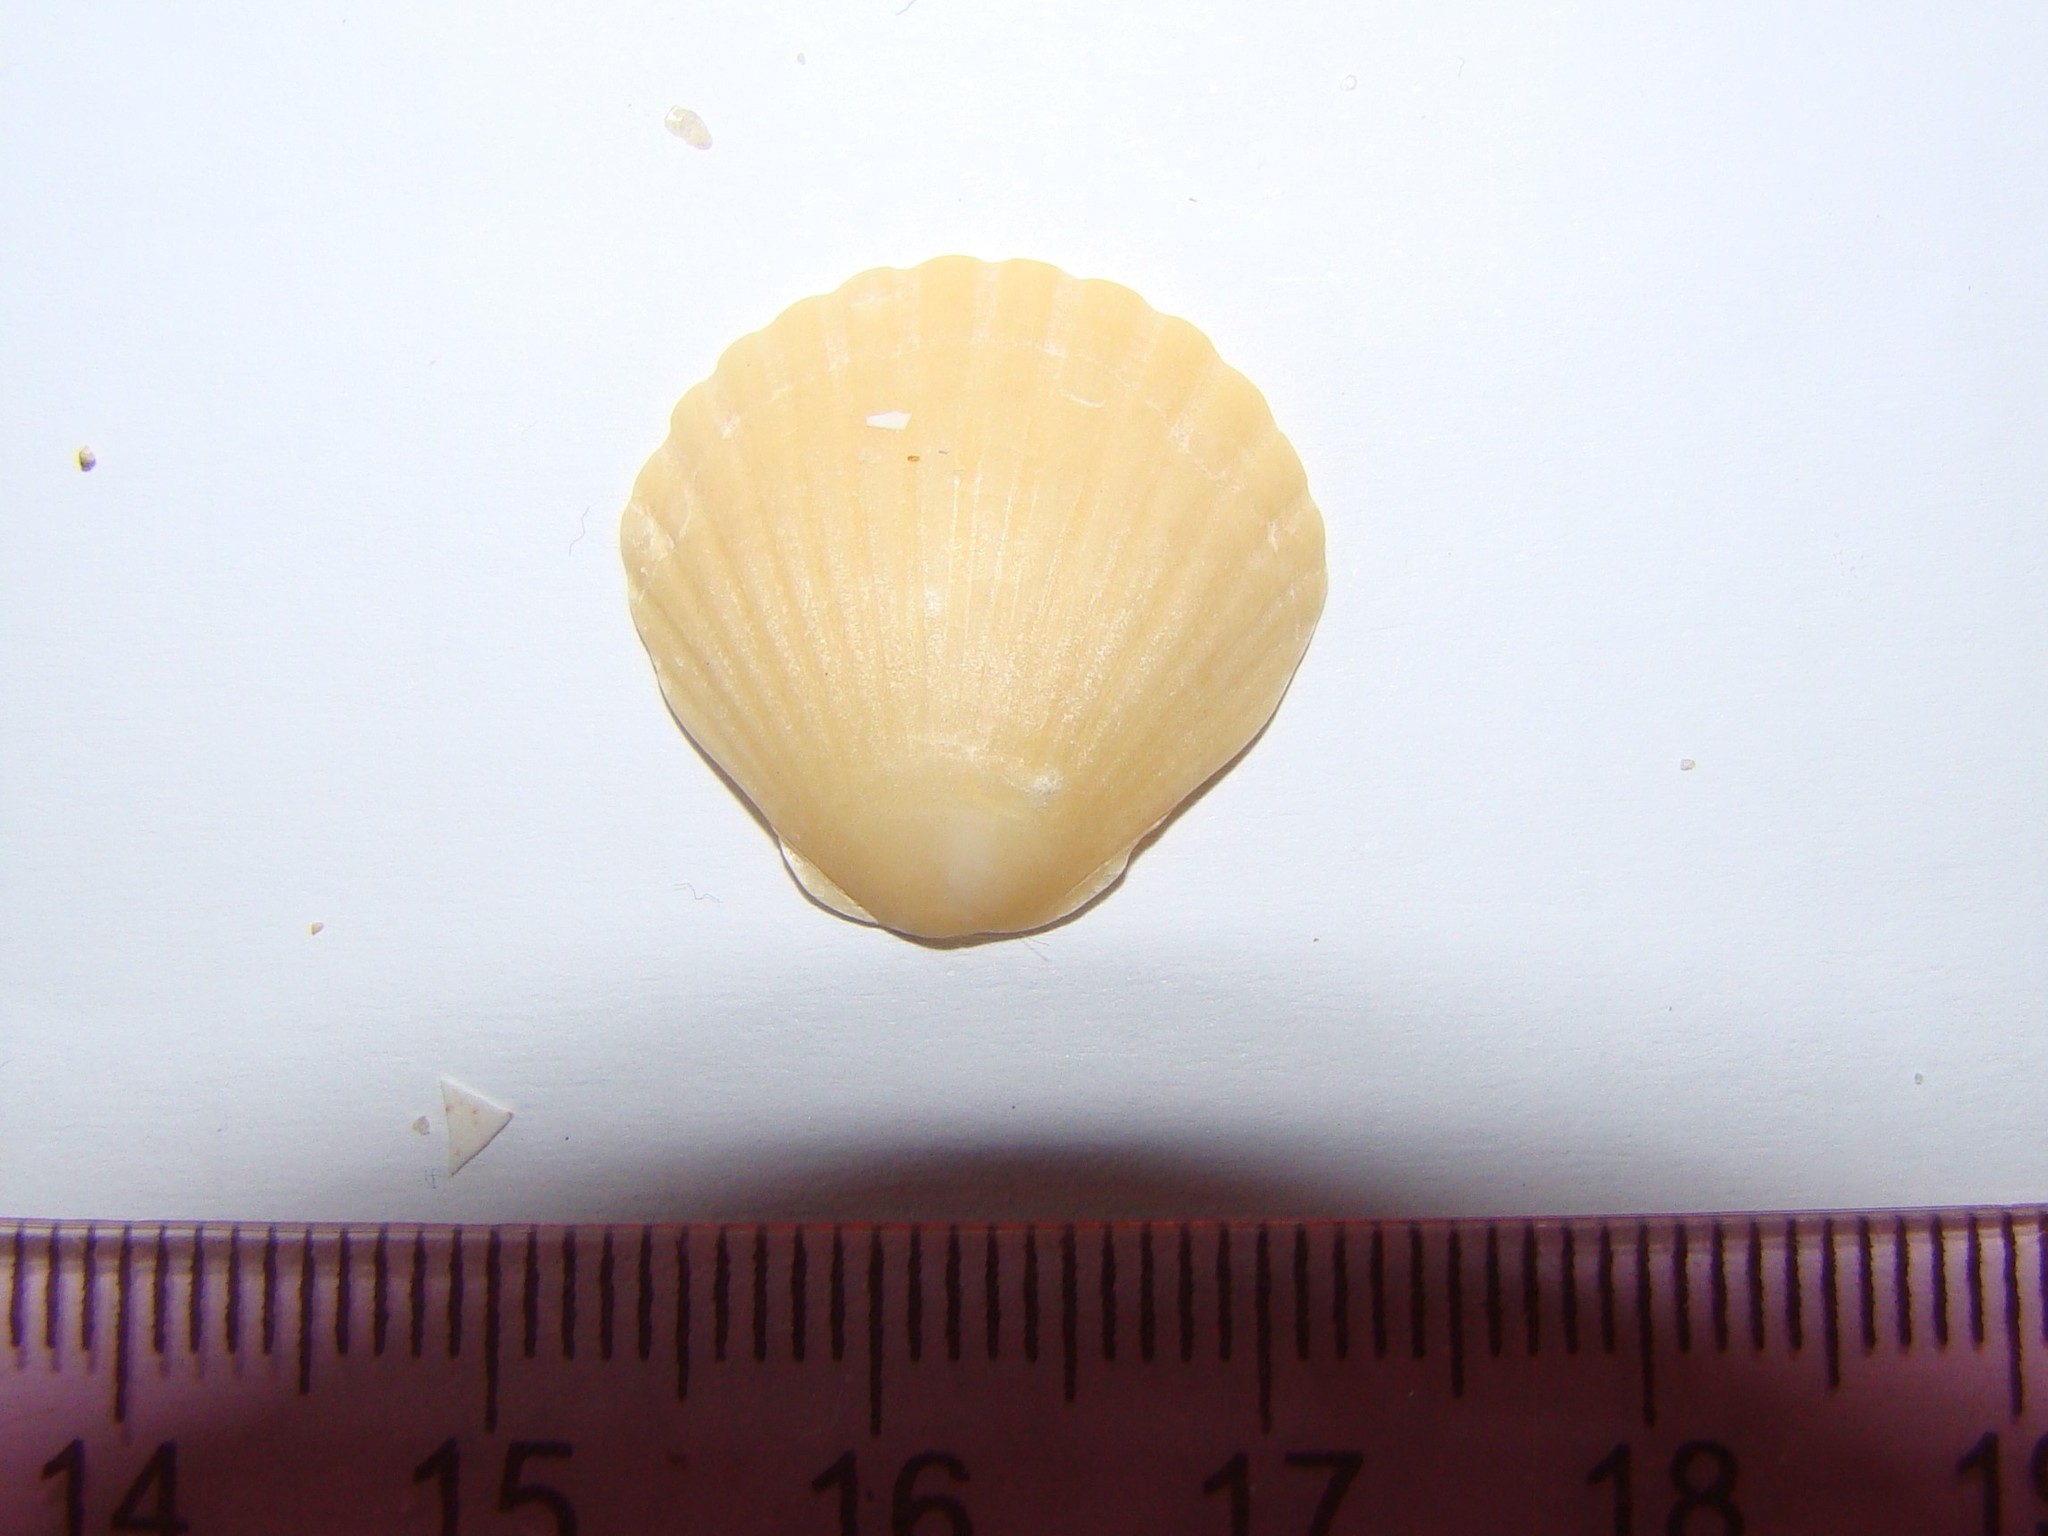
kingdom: Animalia
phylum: Mollusca
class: Bivalvia
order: Pectinida
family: Pectinidae
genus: Pecten
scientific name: Pecten novaezelandiae
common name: New zealand scallop
